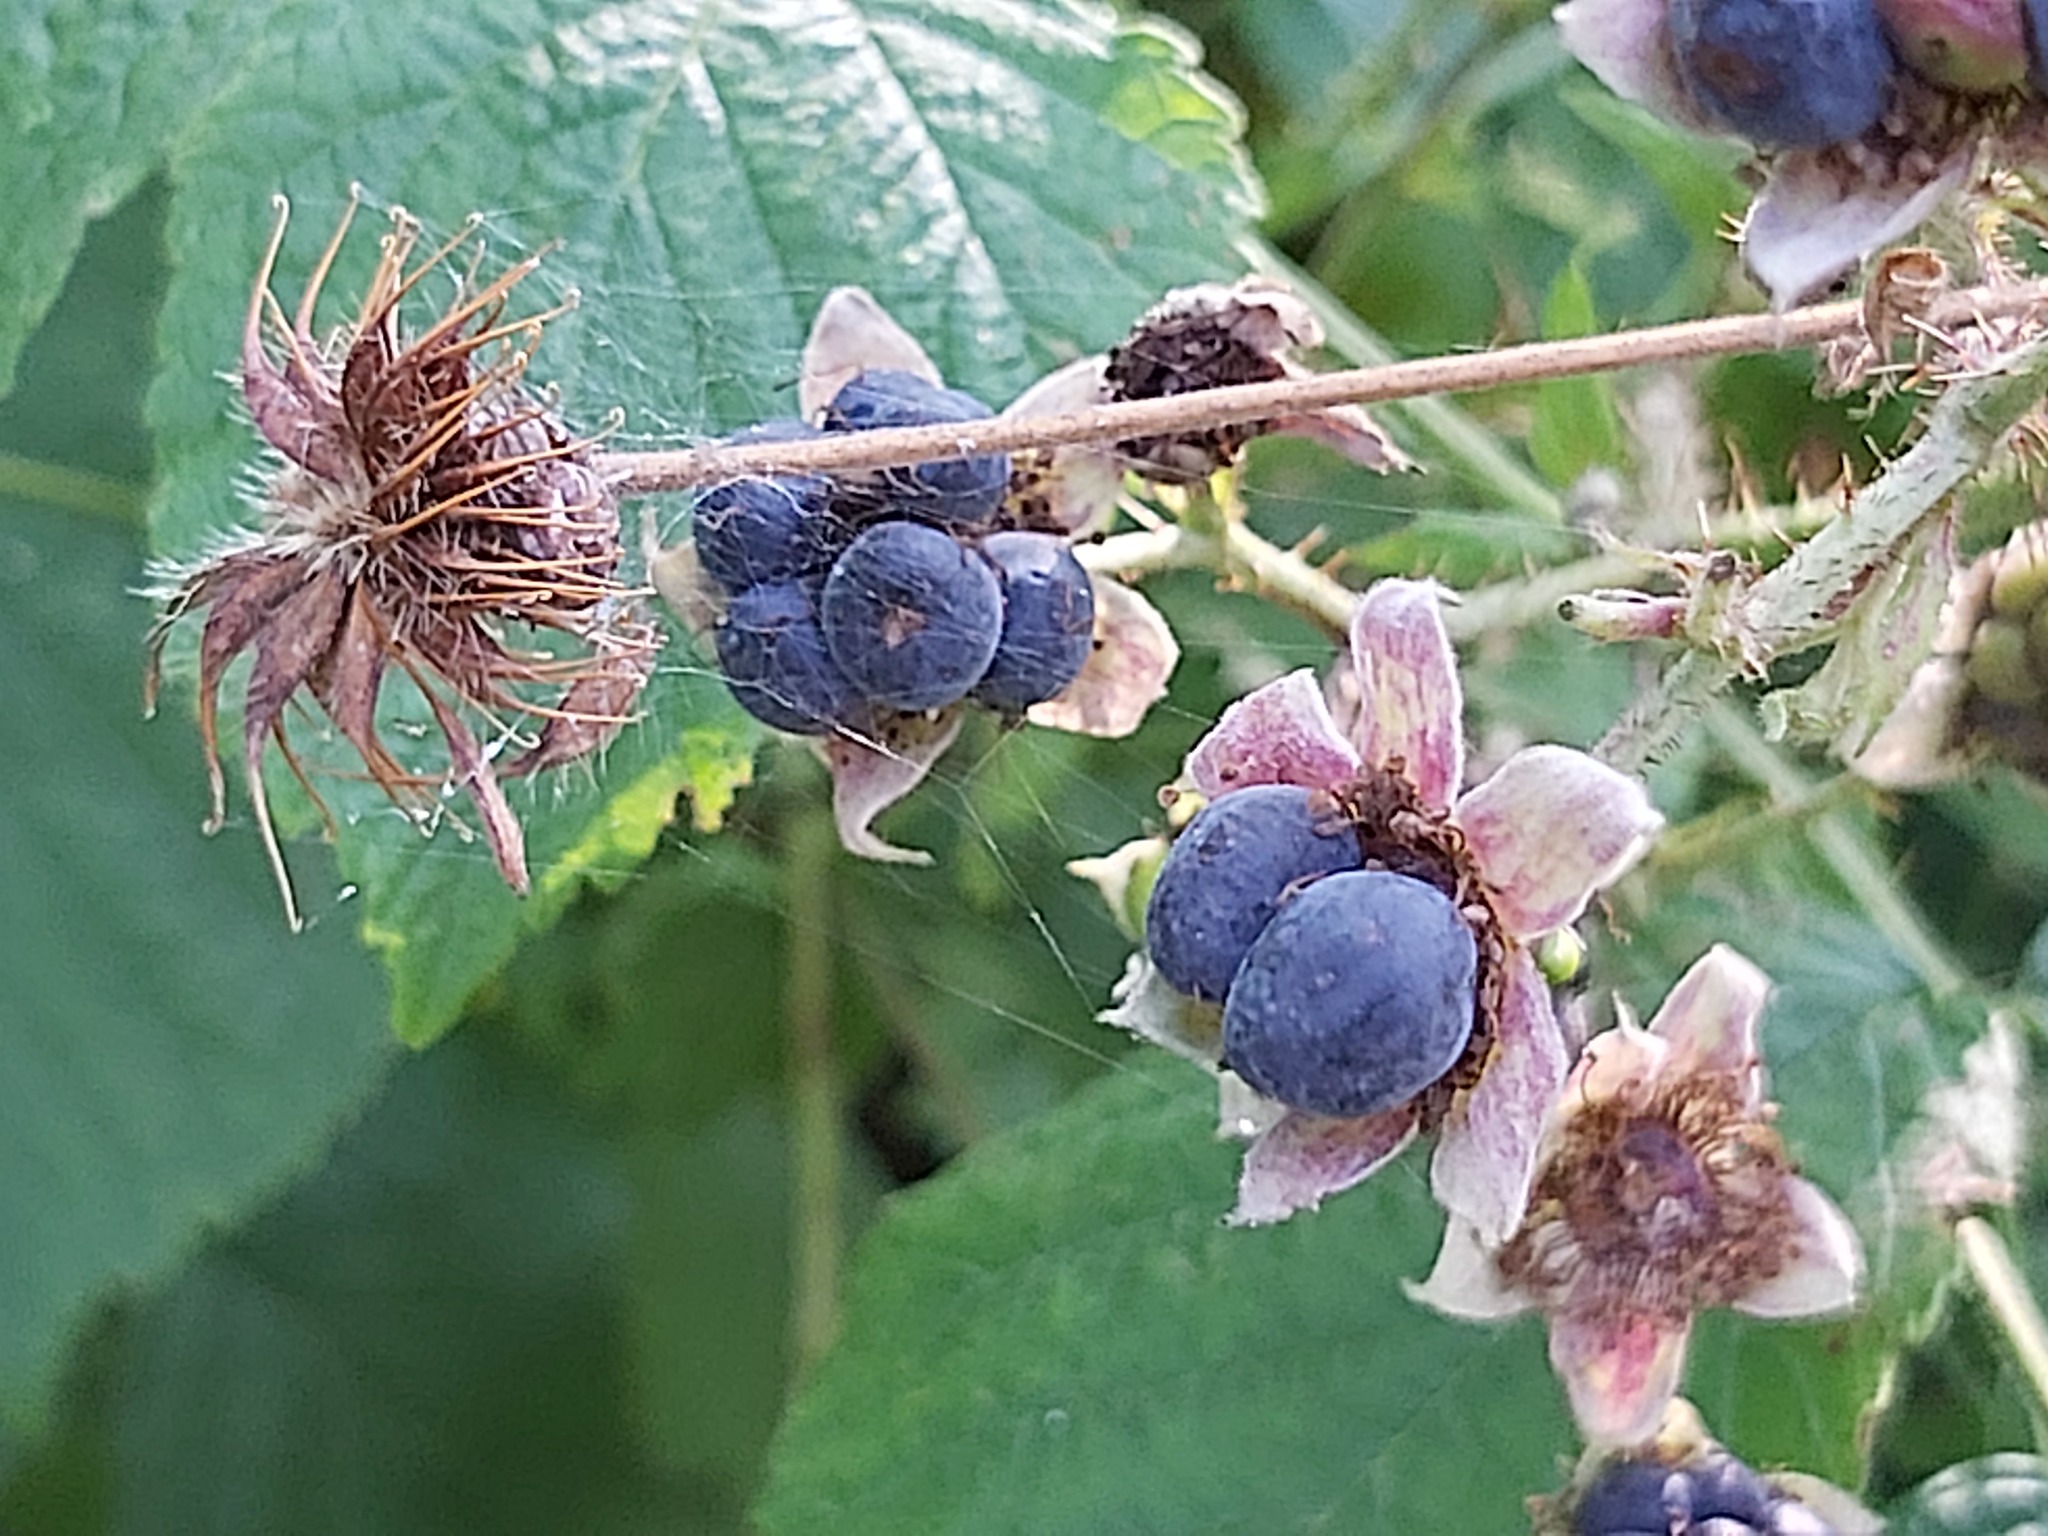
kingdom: Plantae
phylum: Tracheophyta
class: Magnoliopsida
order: Rosales
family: Rosaceae
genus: Rubus
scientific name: Rubus caesius
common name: Dewberry
